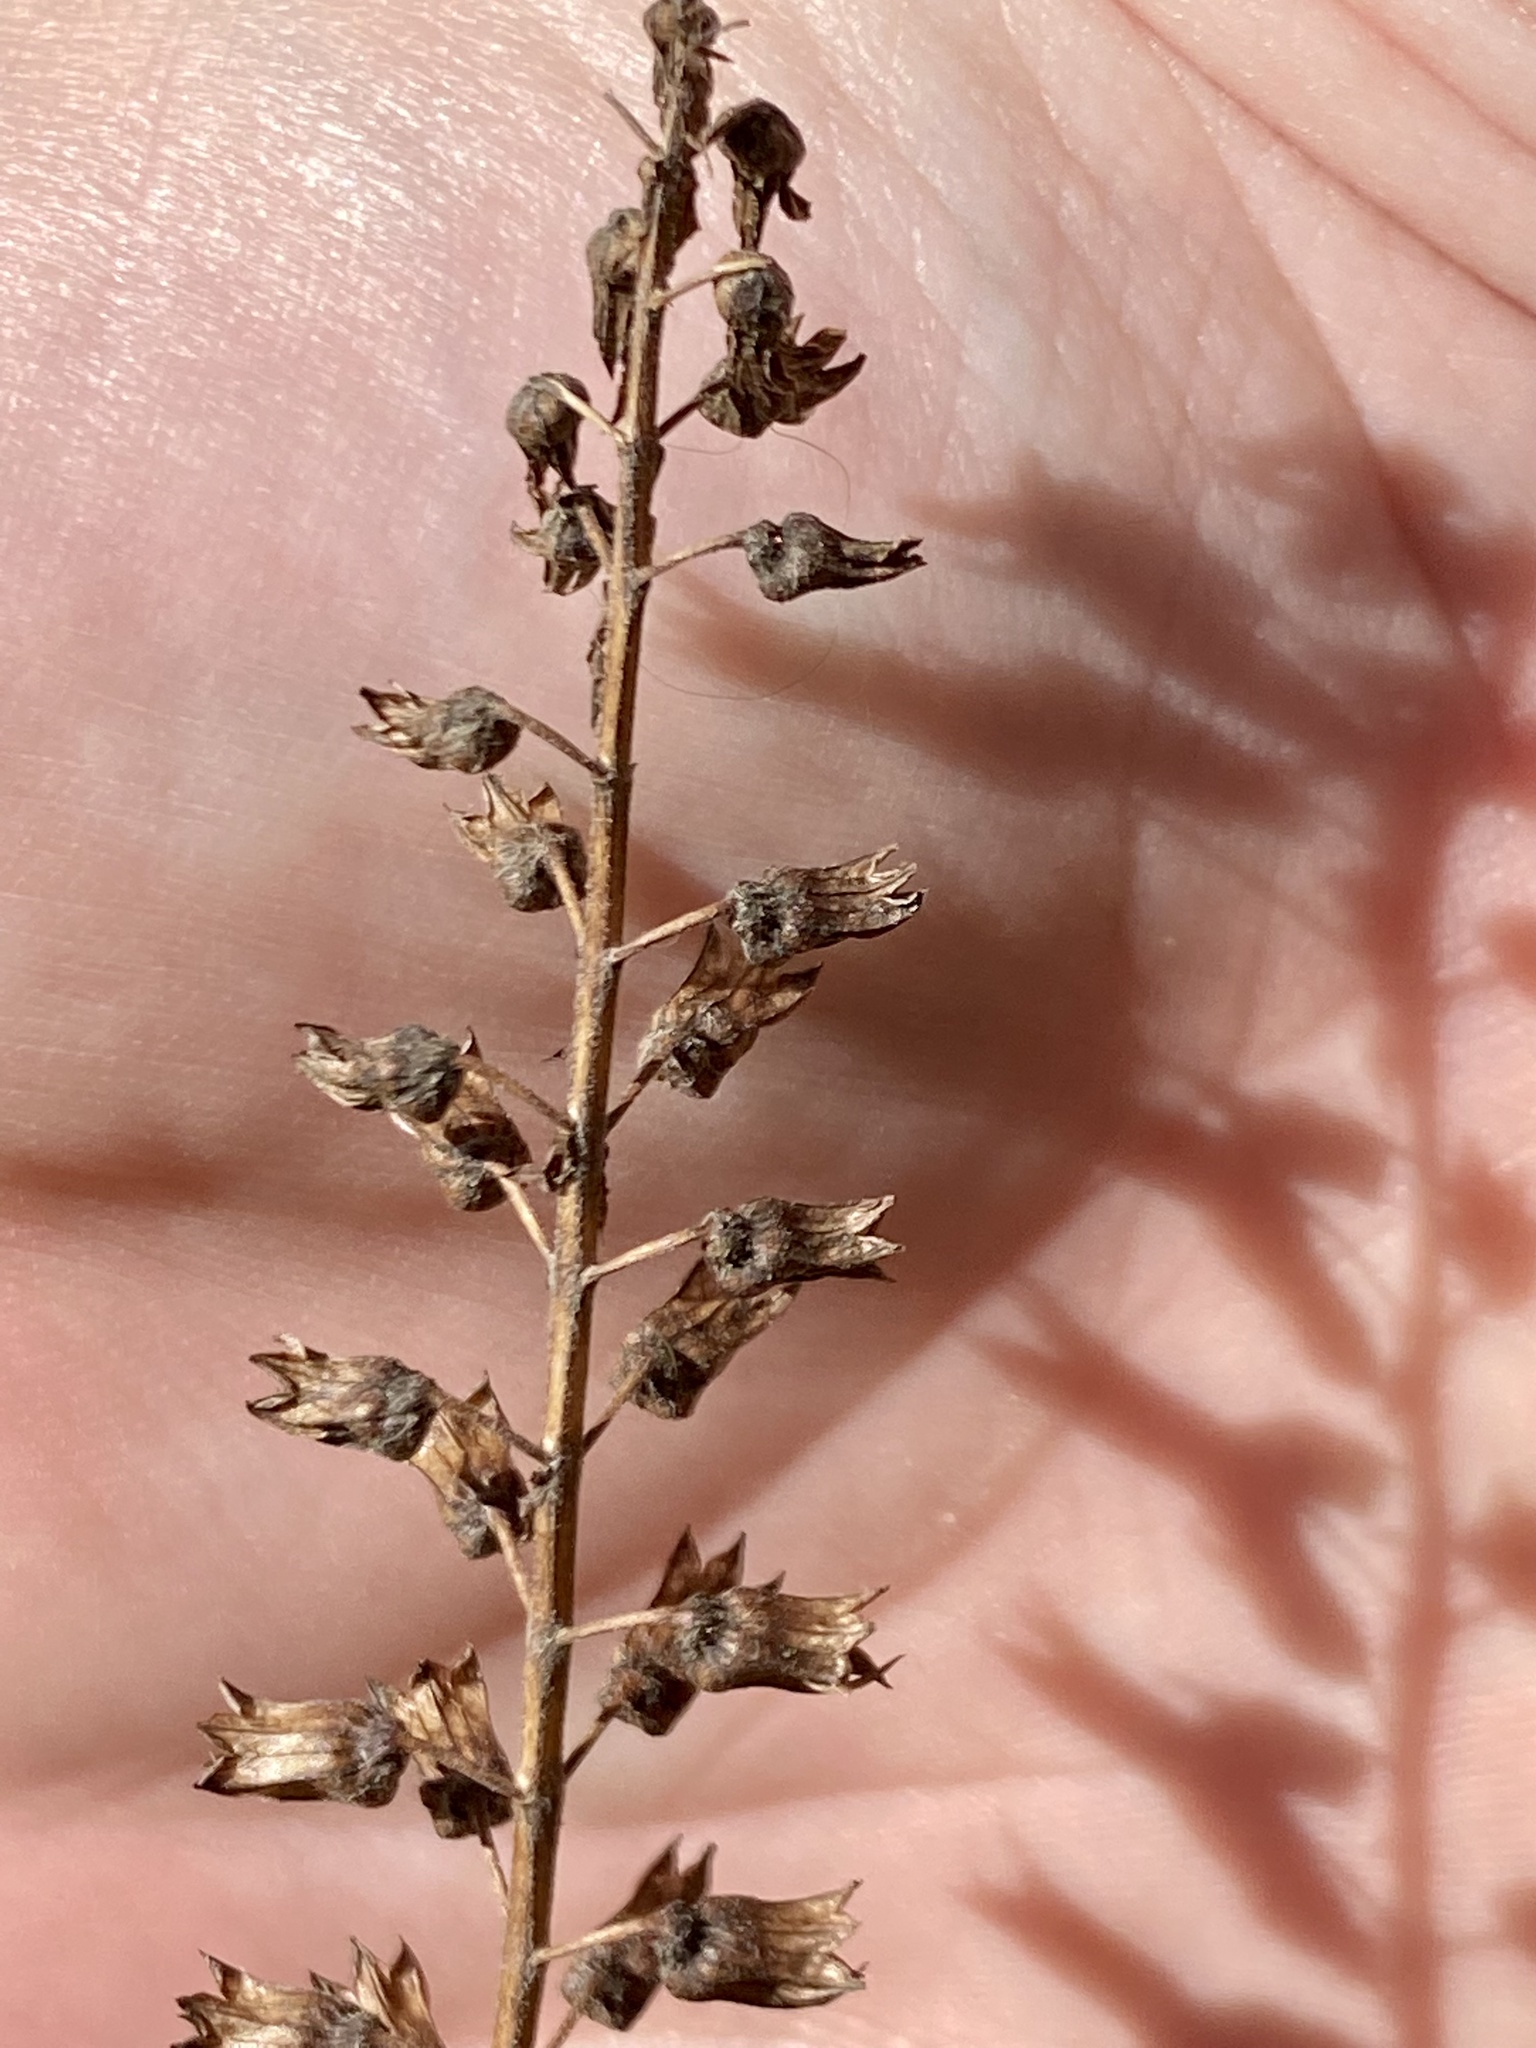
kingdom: Plantae
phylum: Tracheophyta
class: Magnoliopsida
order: Lamiales
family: Lamiaceae
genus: Perilla
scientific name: Perilla frutescens
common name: Perilla
